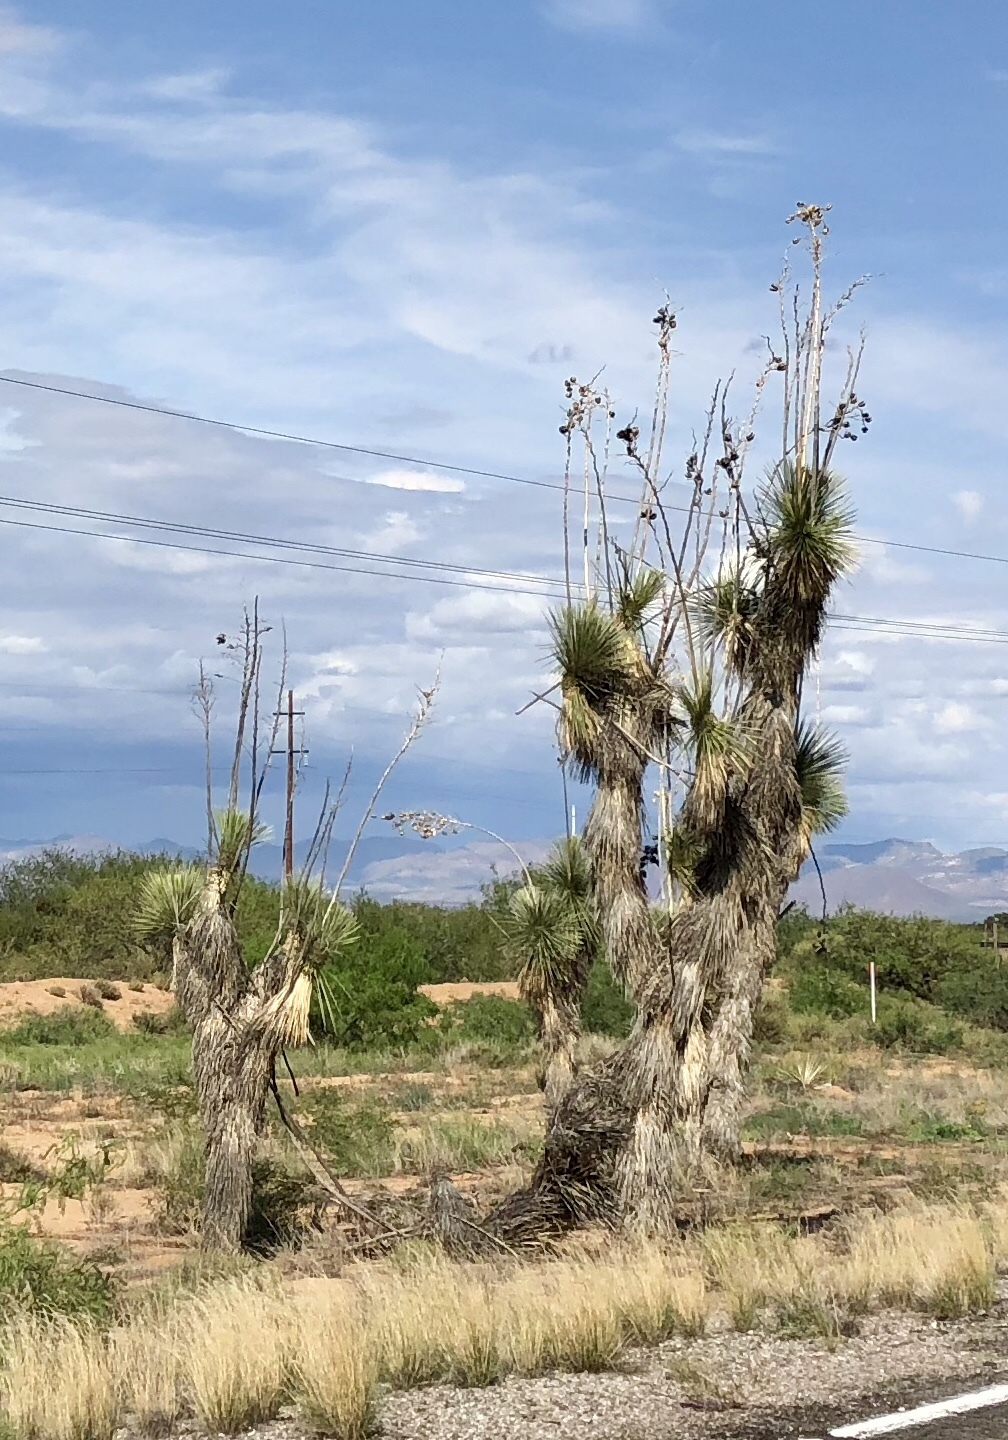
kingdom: Plantae
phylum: Tracheophyta
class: Liliopsida
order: Asparagales
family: Asparagaceae
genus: Yucca
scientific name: Yucca elata
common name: Palmella
